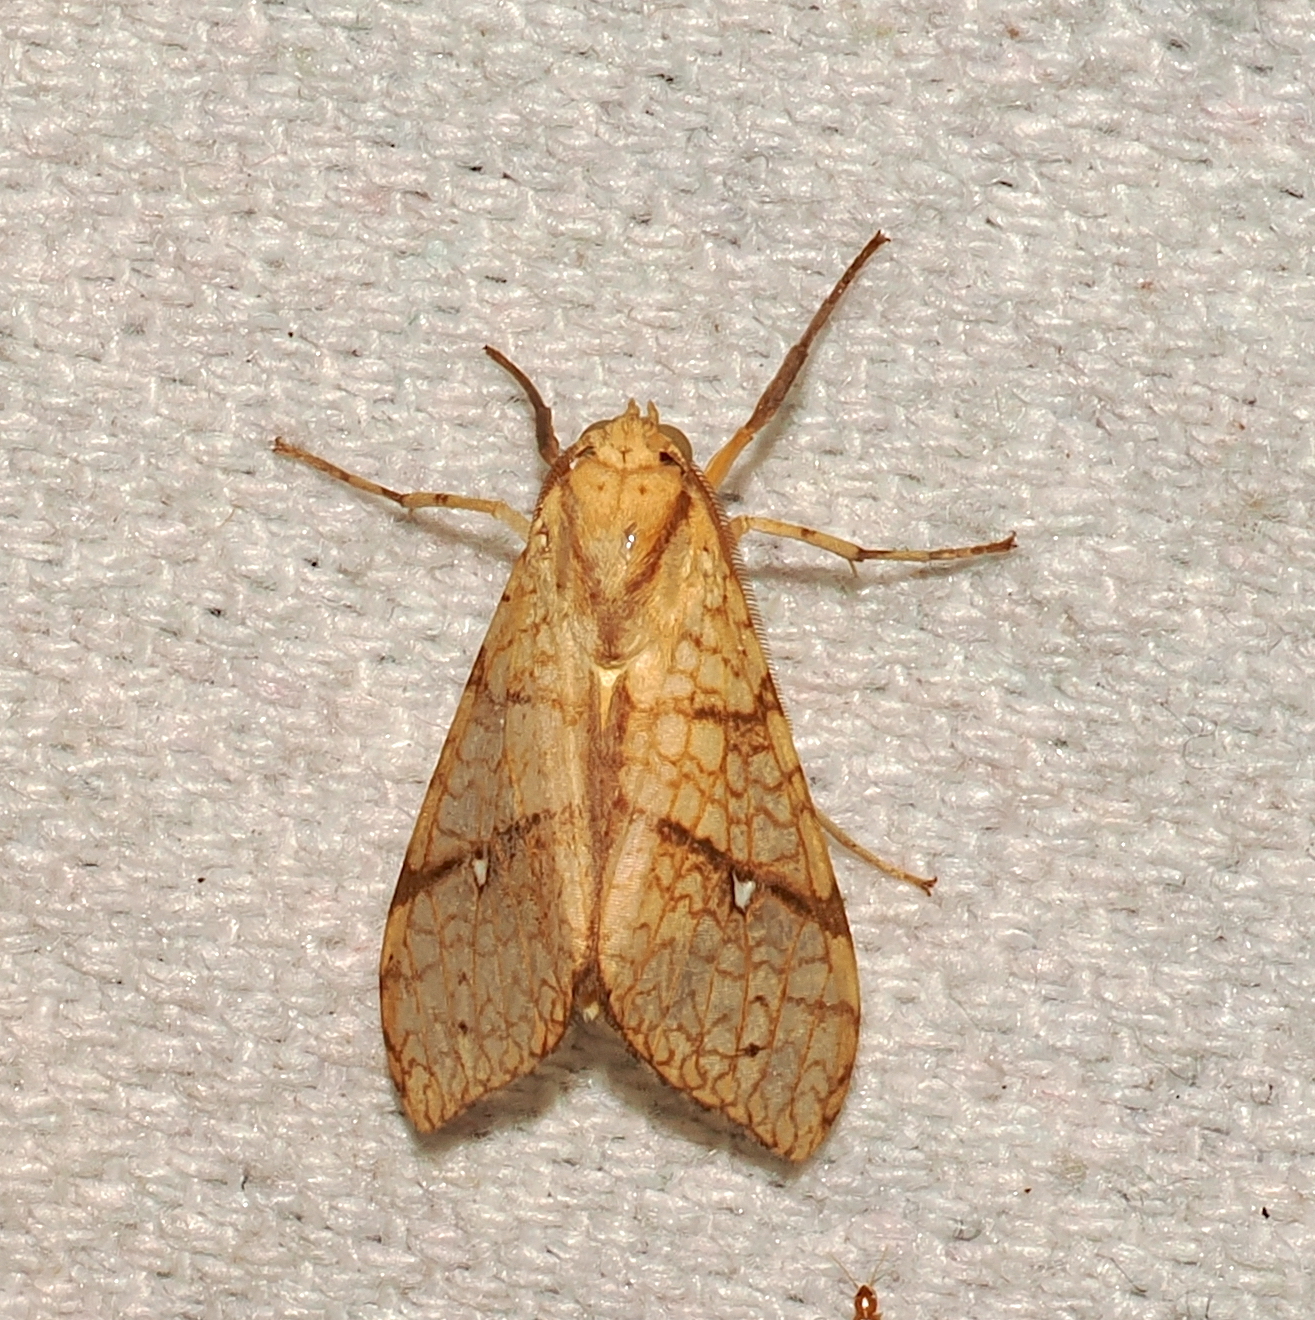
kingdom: Animalia
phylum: Arthropoda
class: Insecta
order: Lepidoptera
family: Erebidae
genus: Lophocampa
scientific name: Lophocampa debilis
